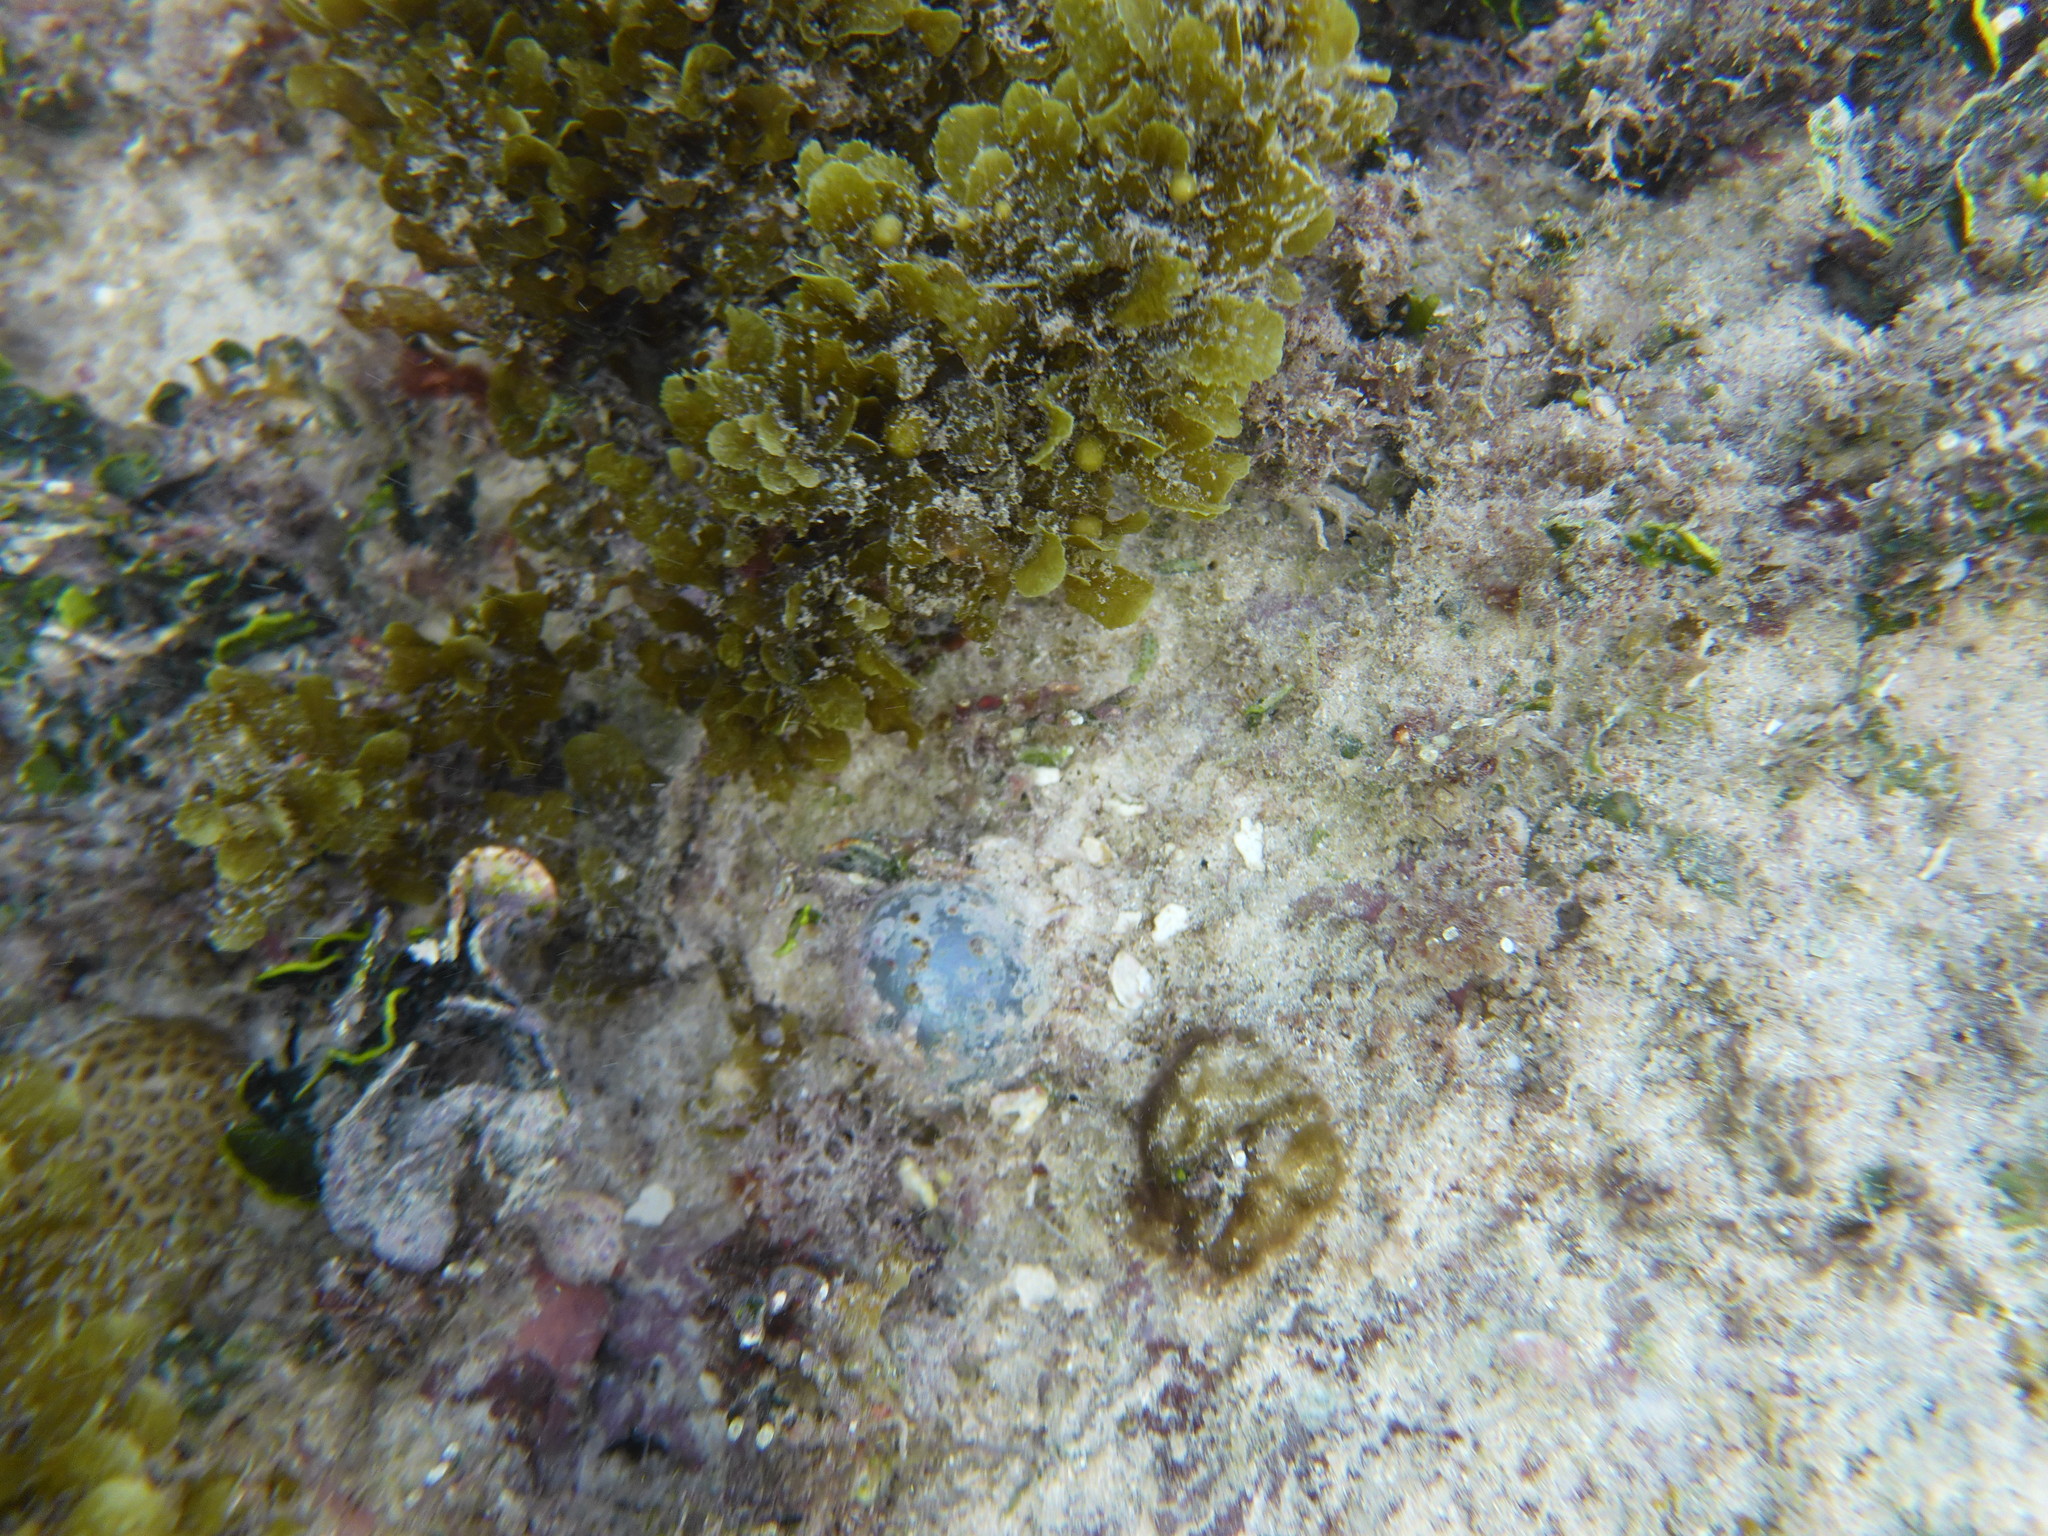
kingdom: Plantae
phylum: Chlorophyta
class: Ulvophyceae
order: Siphonocladales
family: Valoniaceae
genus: Valonia
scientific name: Valonia ventricosa
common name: Sea pearl
